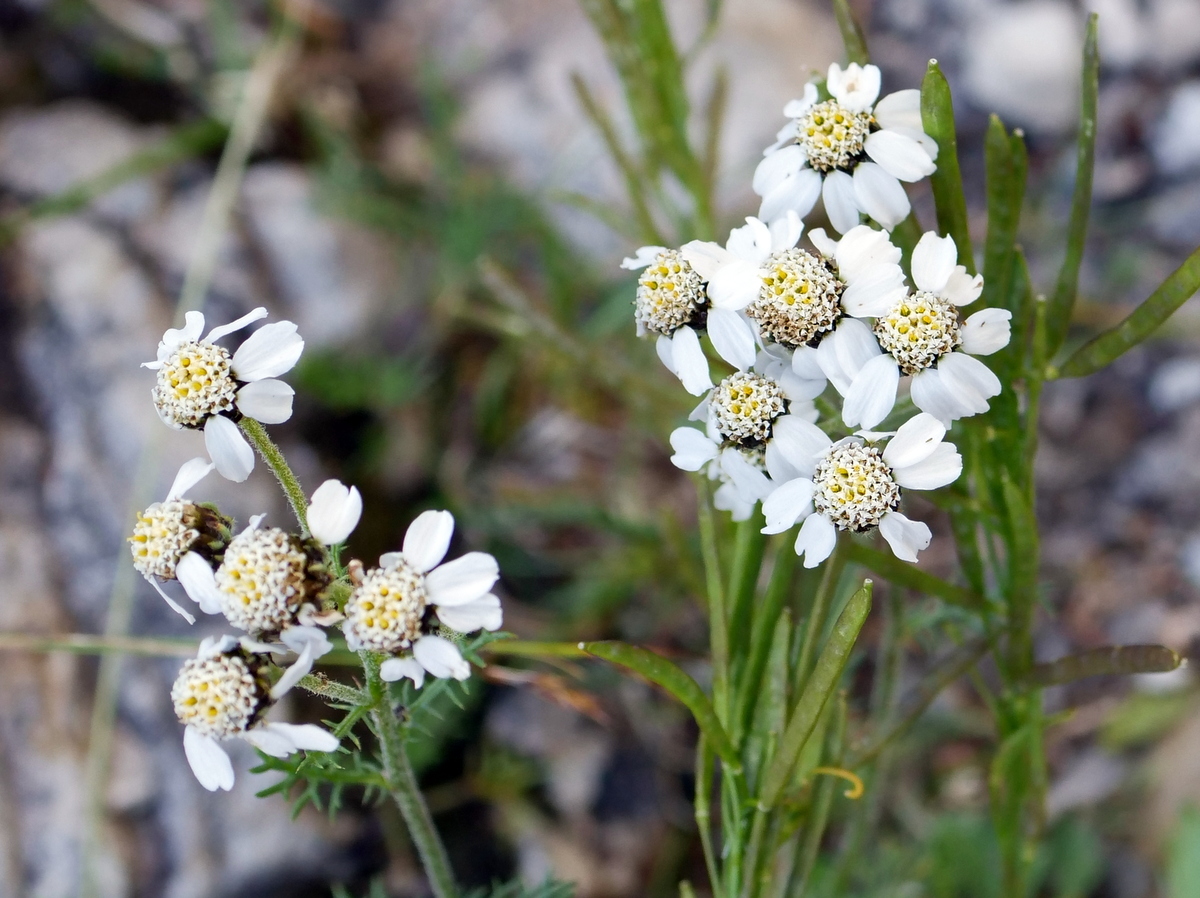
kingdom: Plantae
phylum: Tracheophyta
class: Magnoliopsida
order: Asterales
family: Asteraceae
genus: Achillea
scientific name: Achillea atrata
